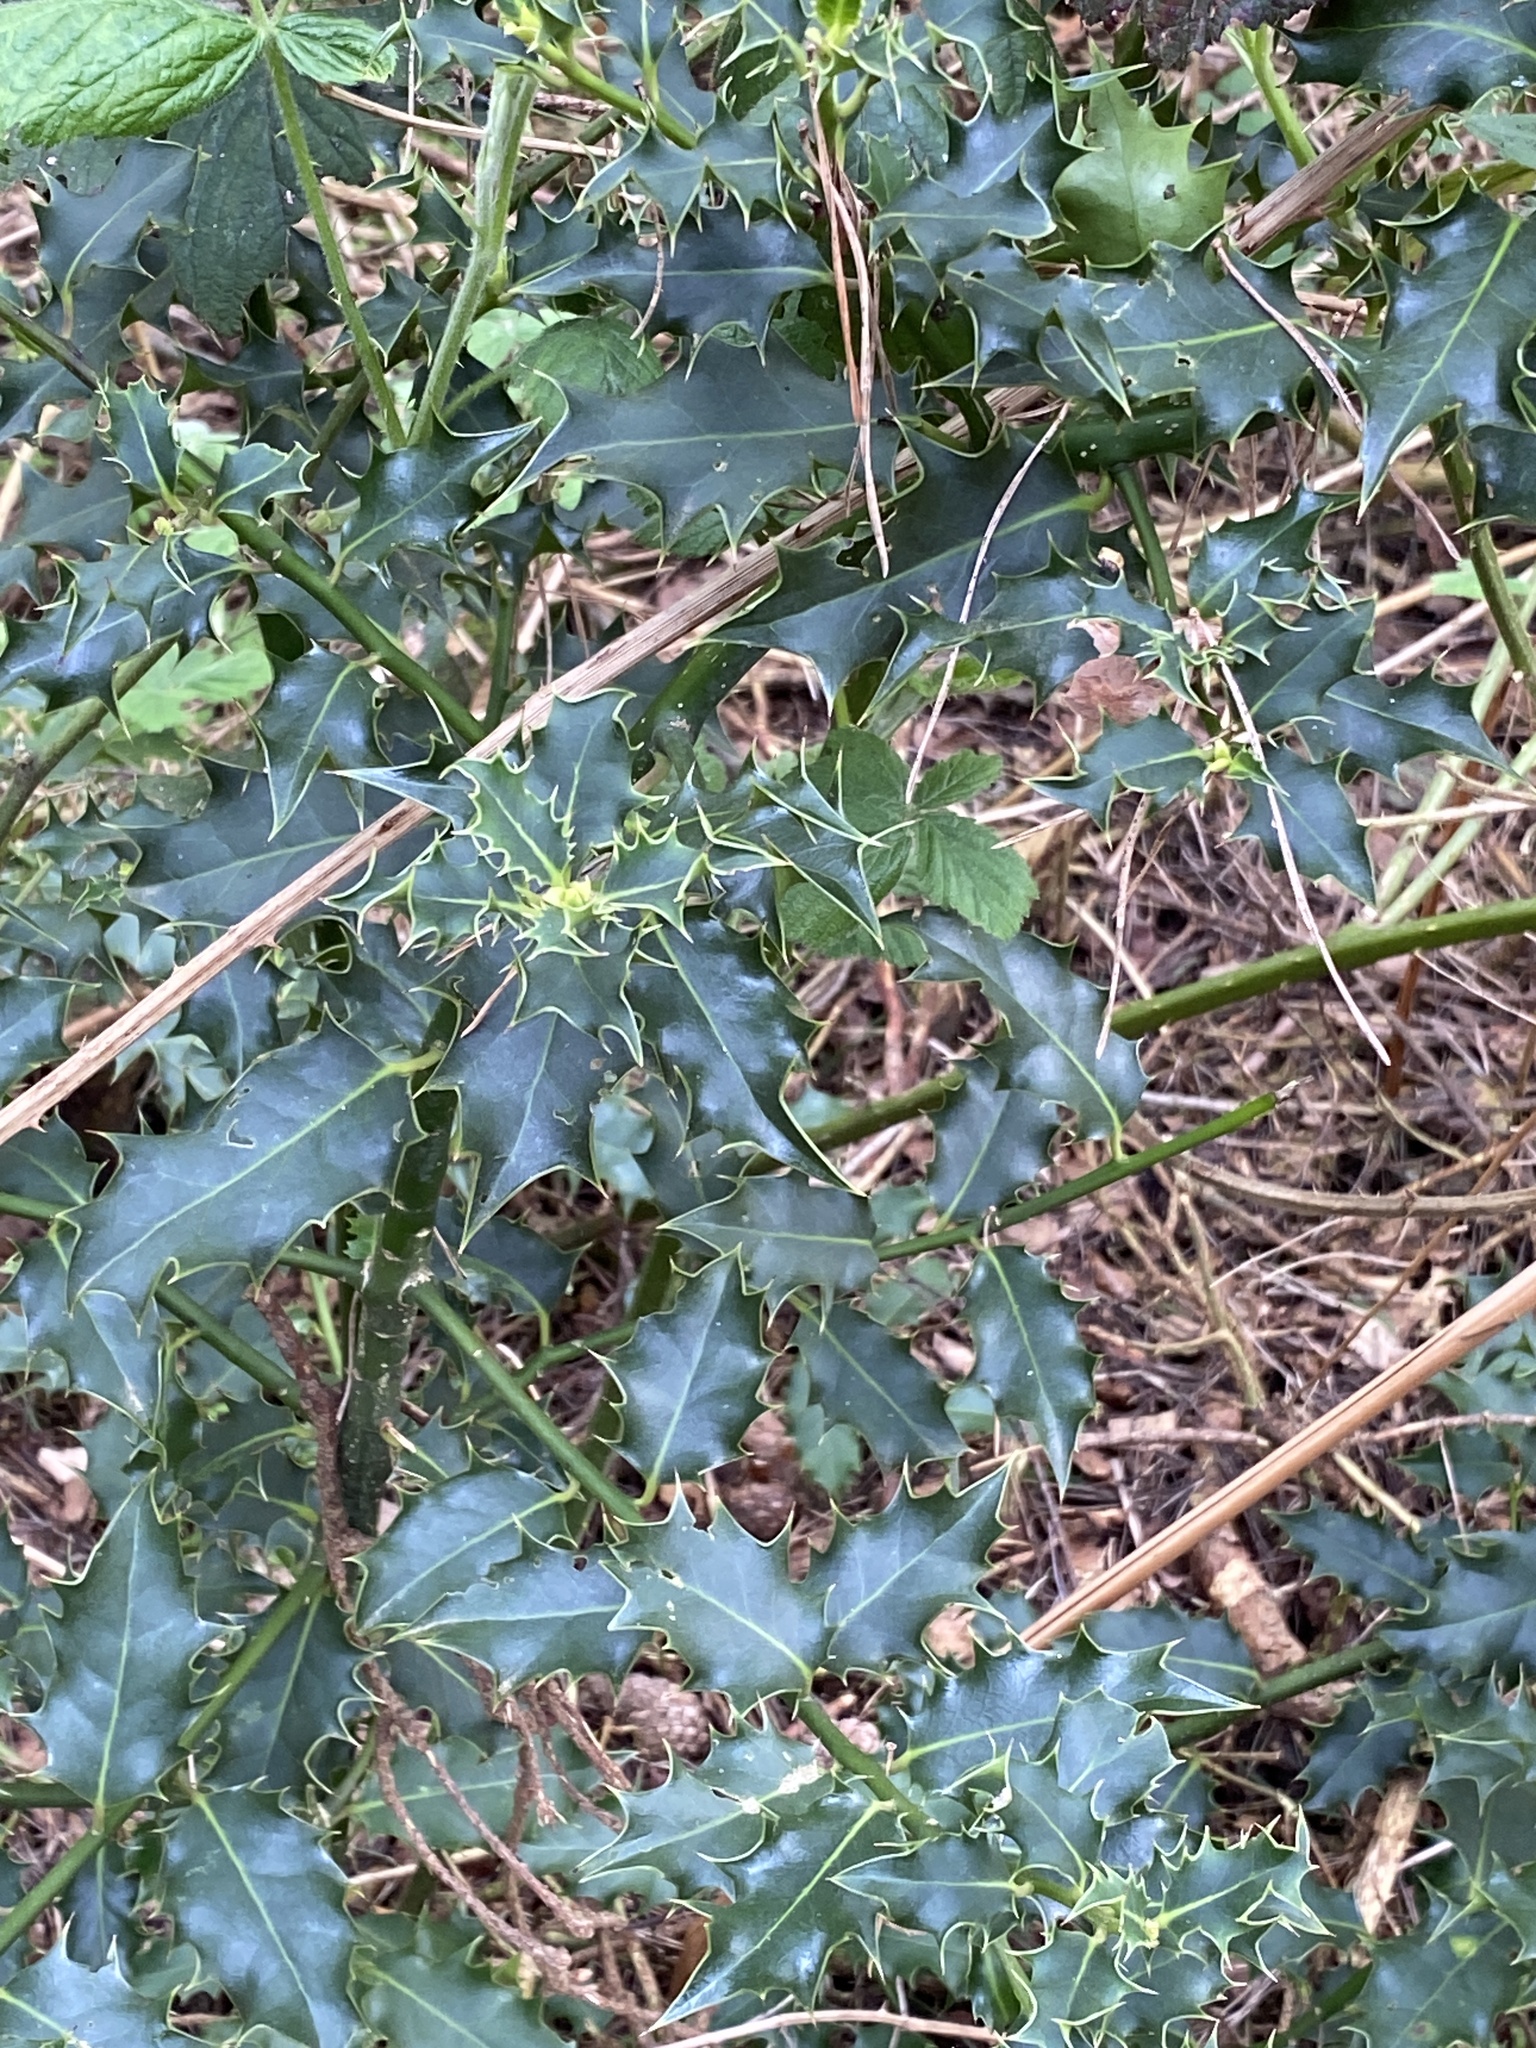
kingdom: Plantae
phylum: Tracheophyta
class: Magnoliopsida
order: Aquifoliales
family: Aquifoliaceae
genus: Ilex
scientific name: Ilex aquifolium
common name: English holly
